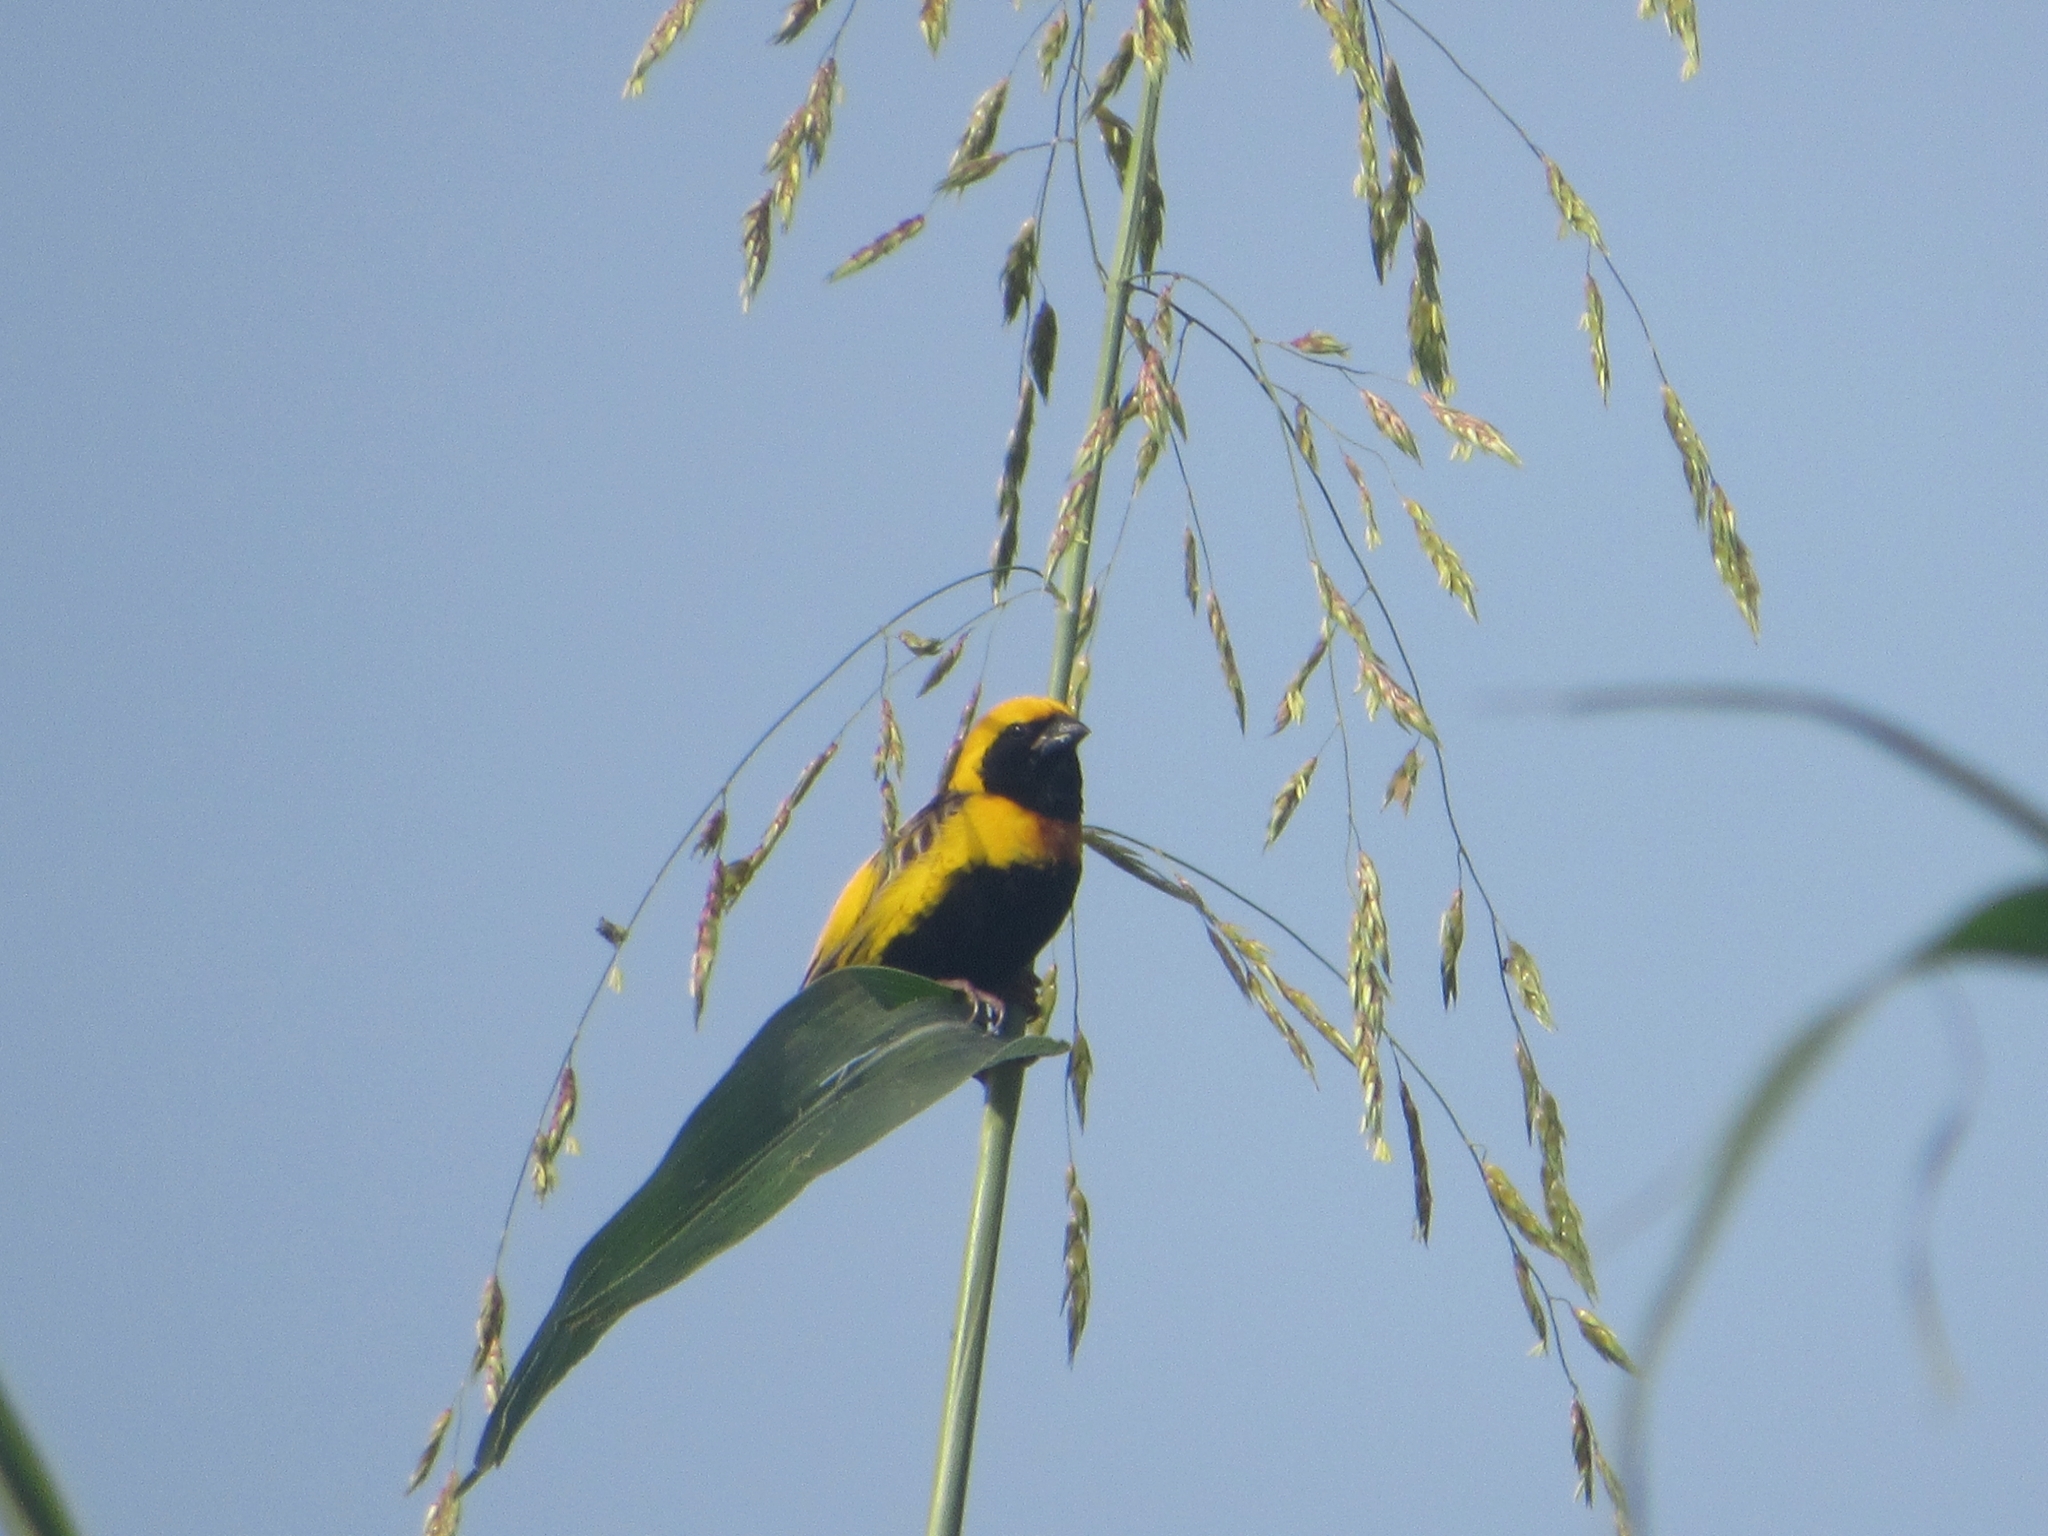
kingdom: Animalia
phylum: Chordata
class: Aves
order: Passeriformes
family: Ploceidae
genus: Euplectes
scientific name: Euplectes afer
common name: Yellow-crowned bishop
